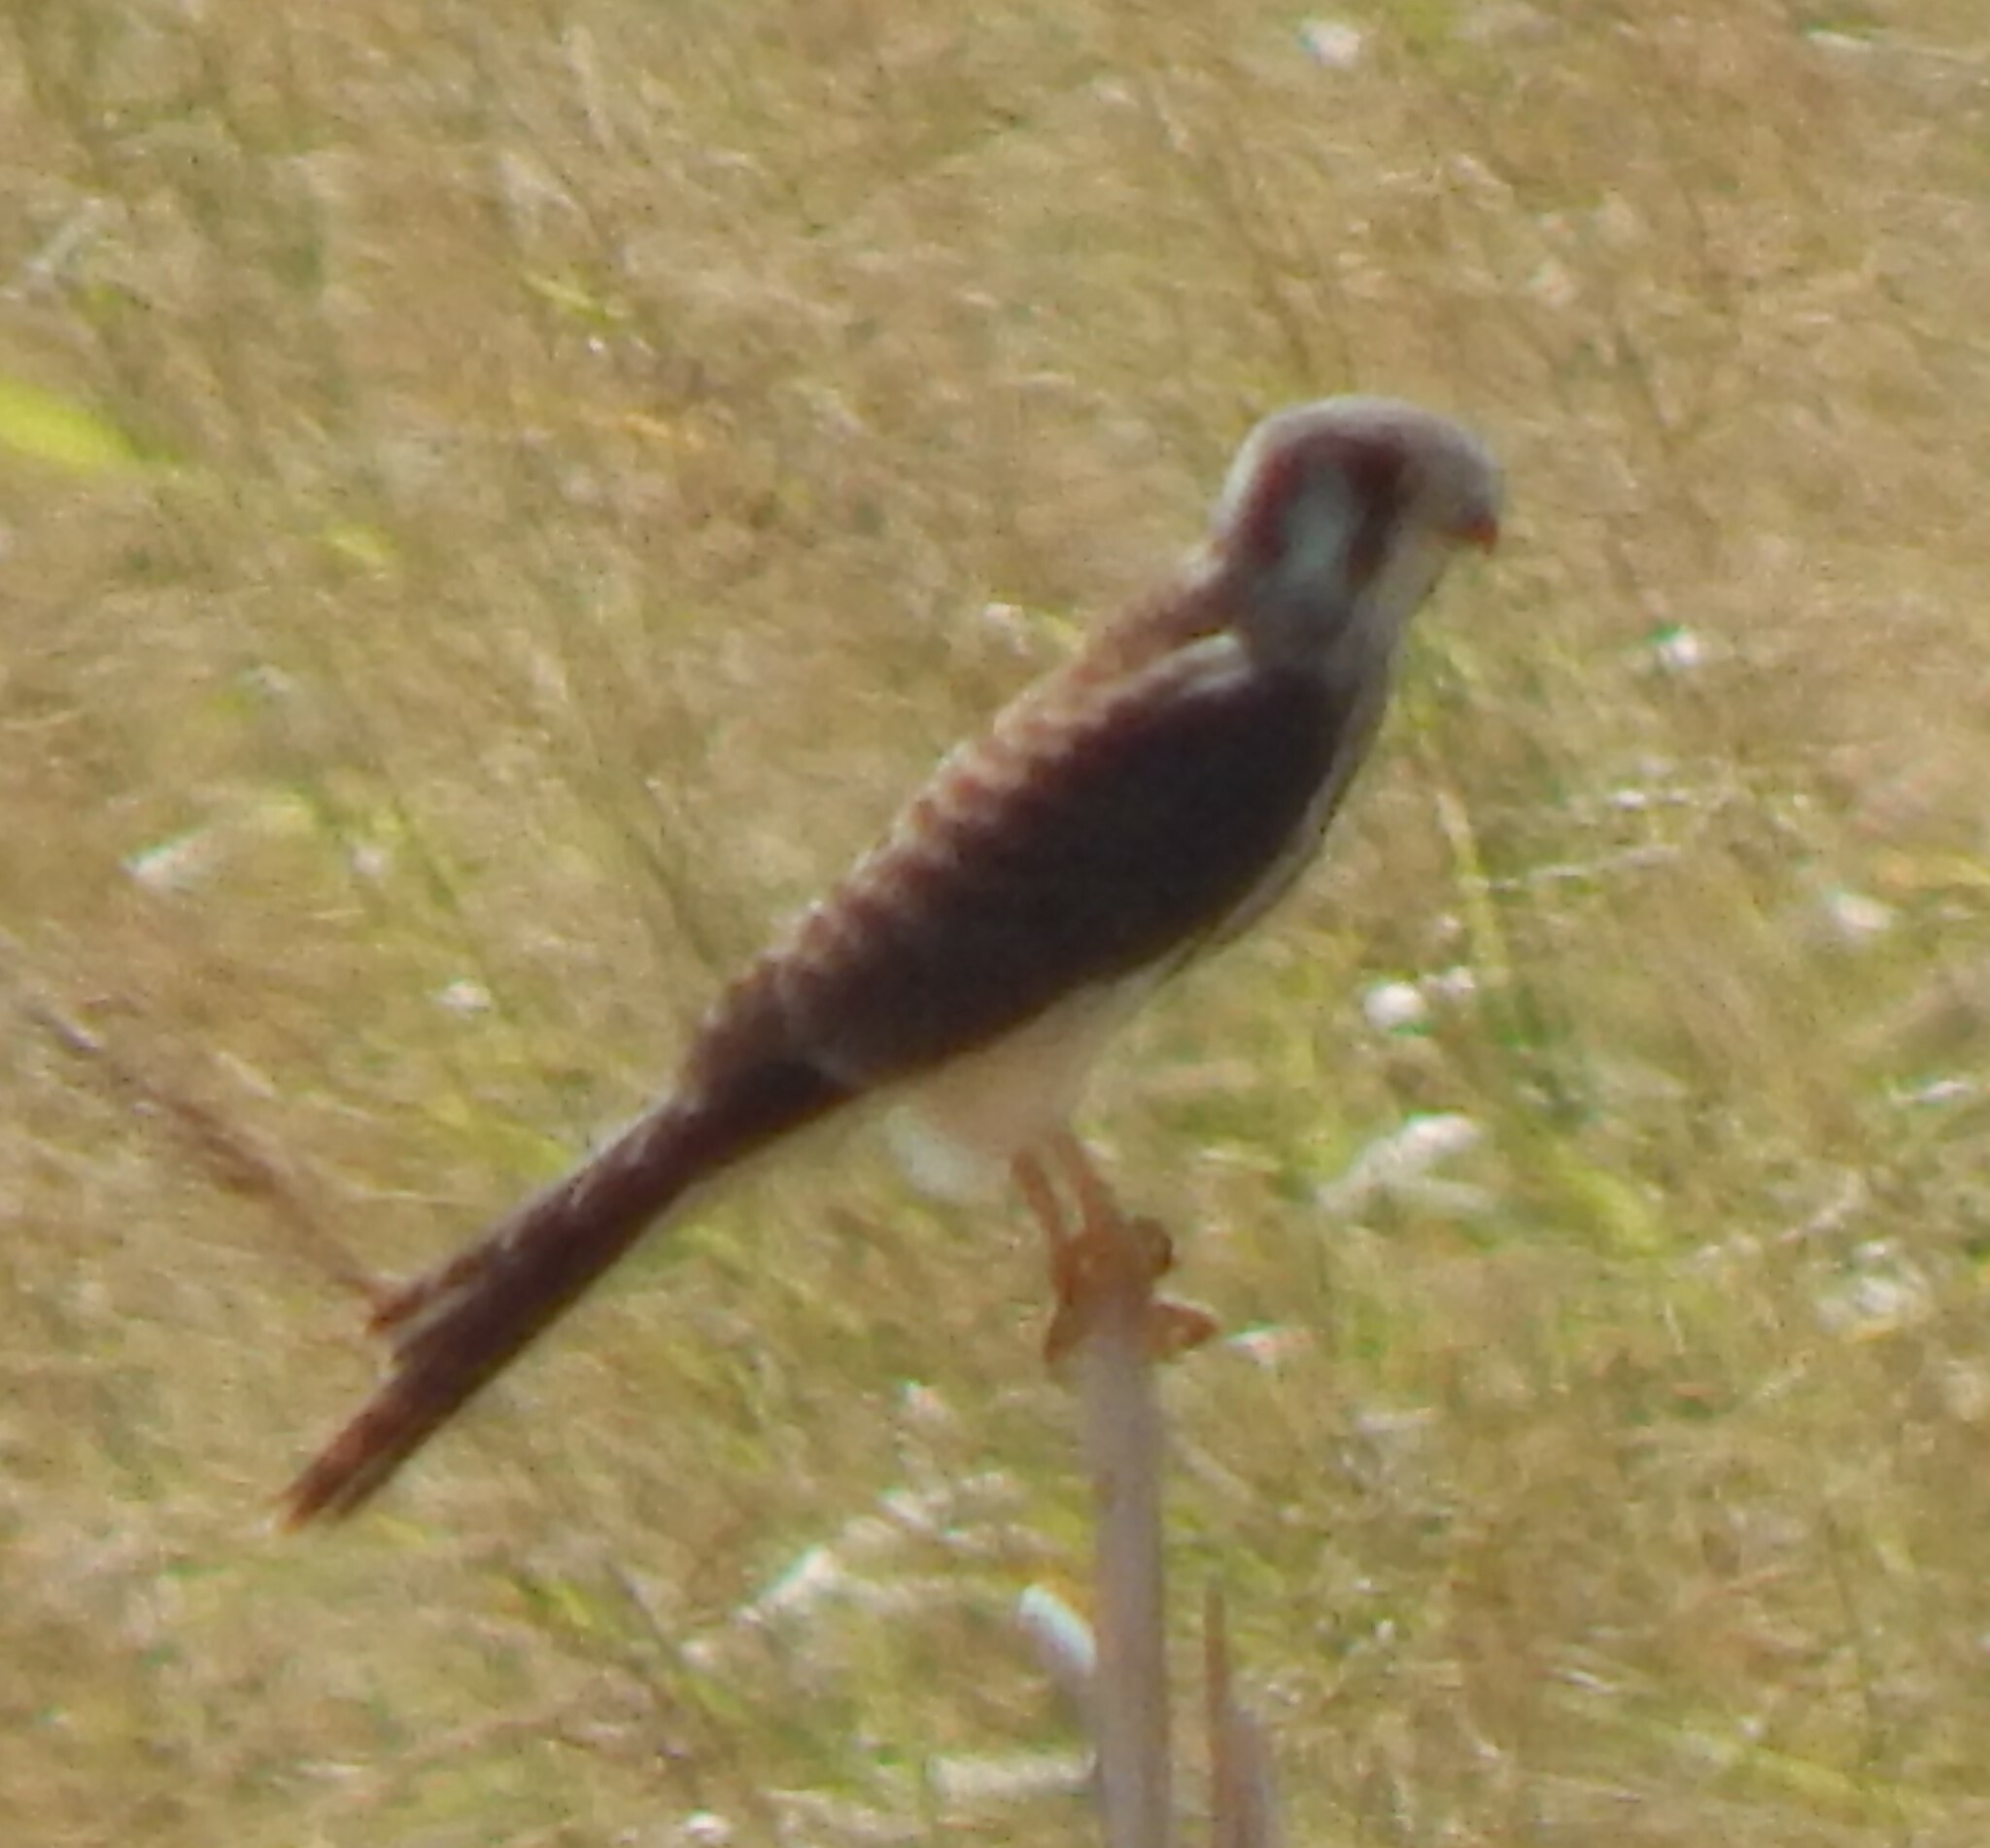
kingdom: Animalia
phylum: Chordata
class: Aves
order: Falconiformes
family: Falconidae
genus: Falco
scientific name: Falco sparverius
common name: American kestrel
